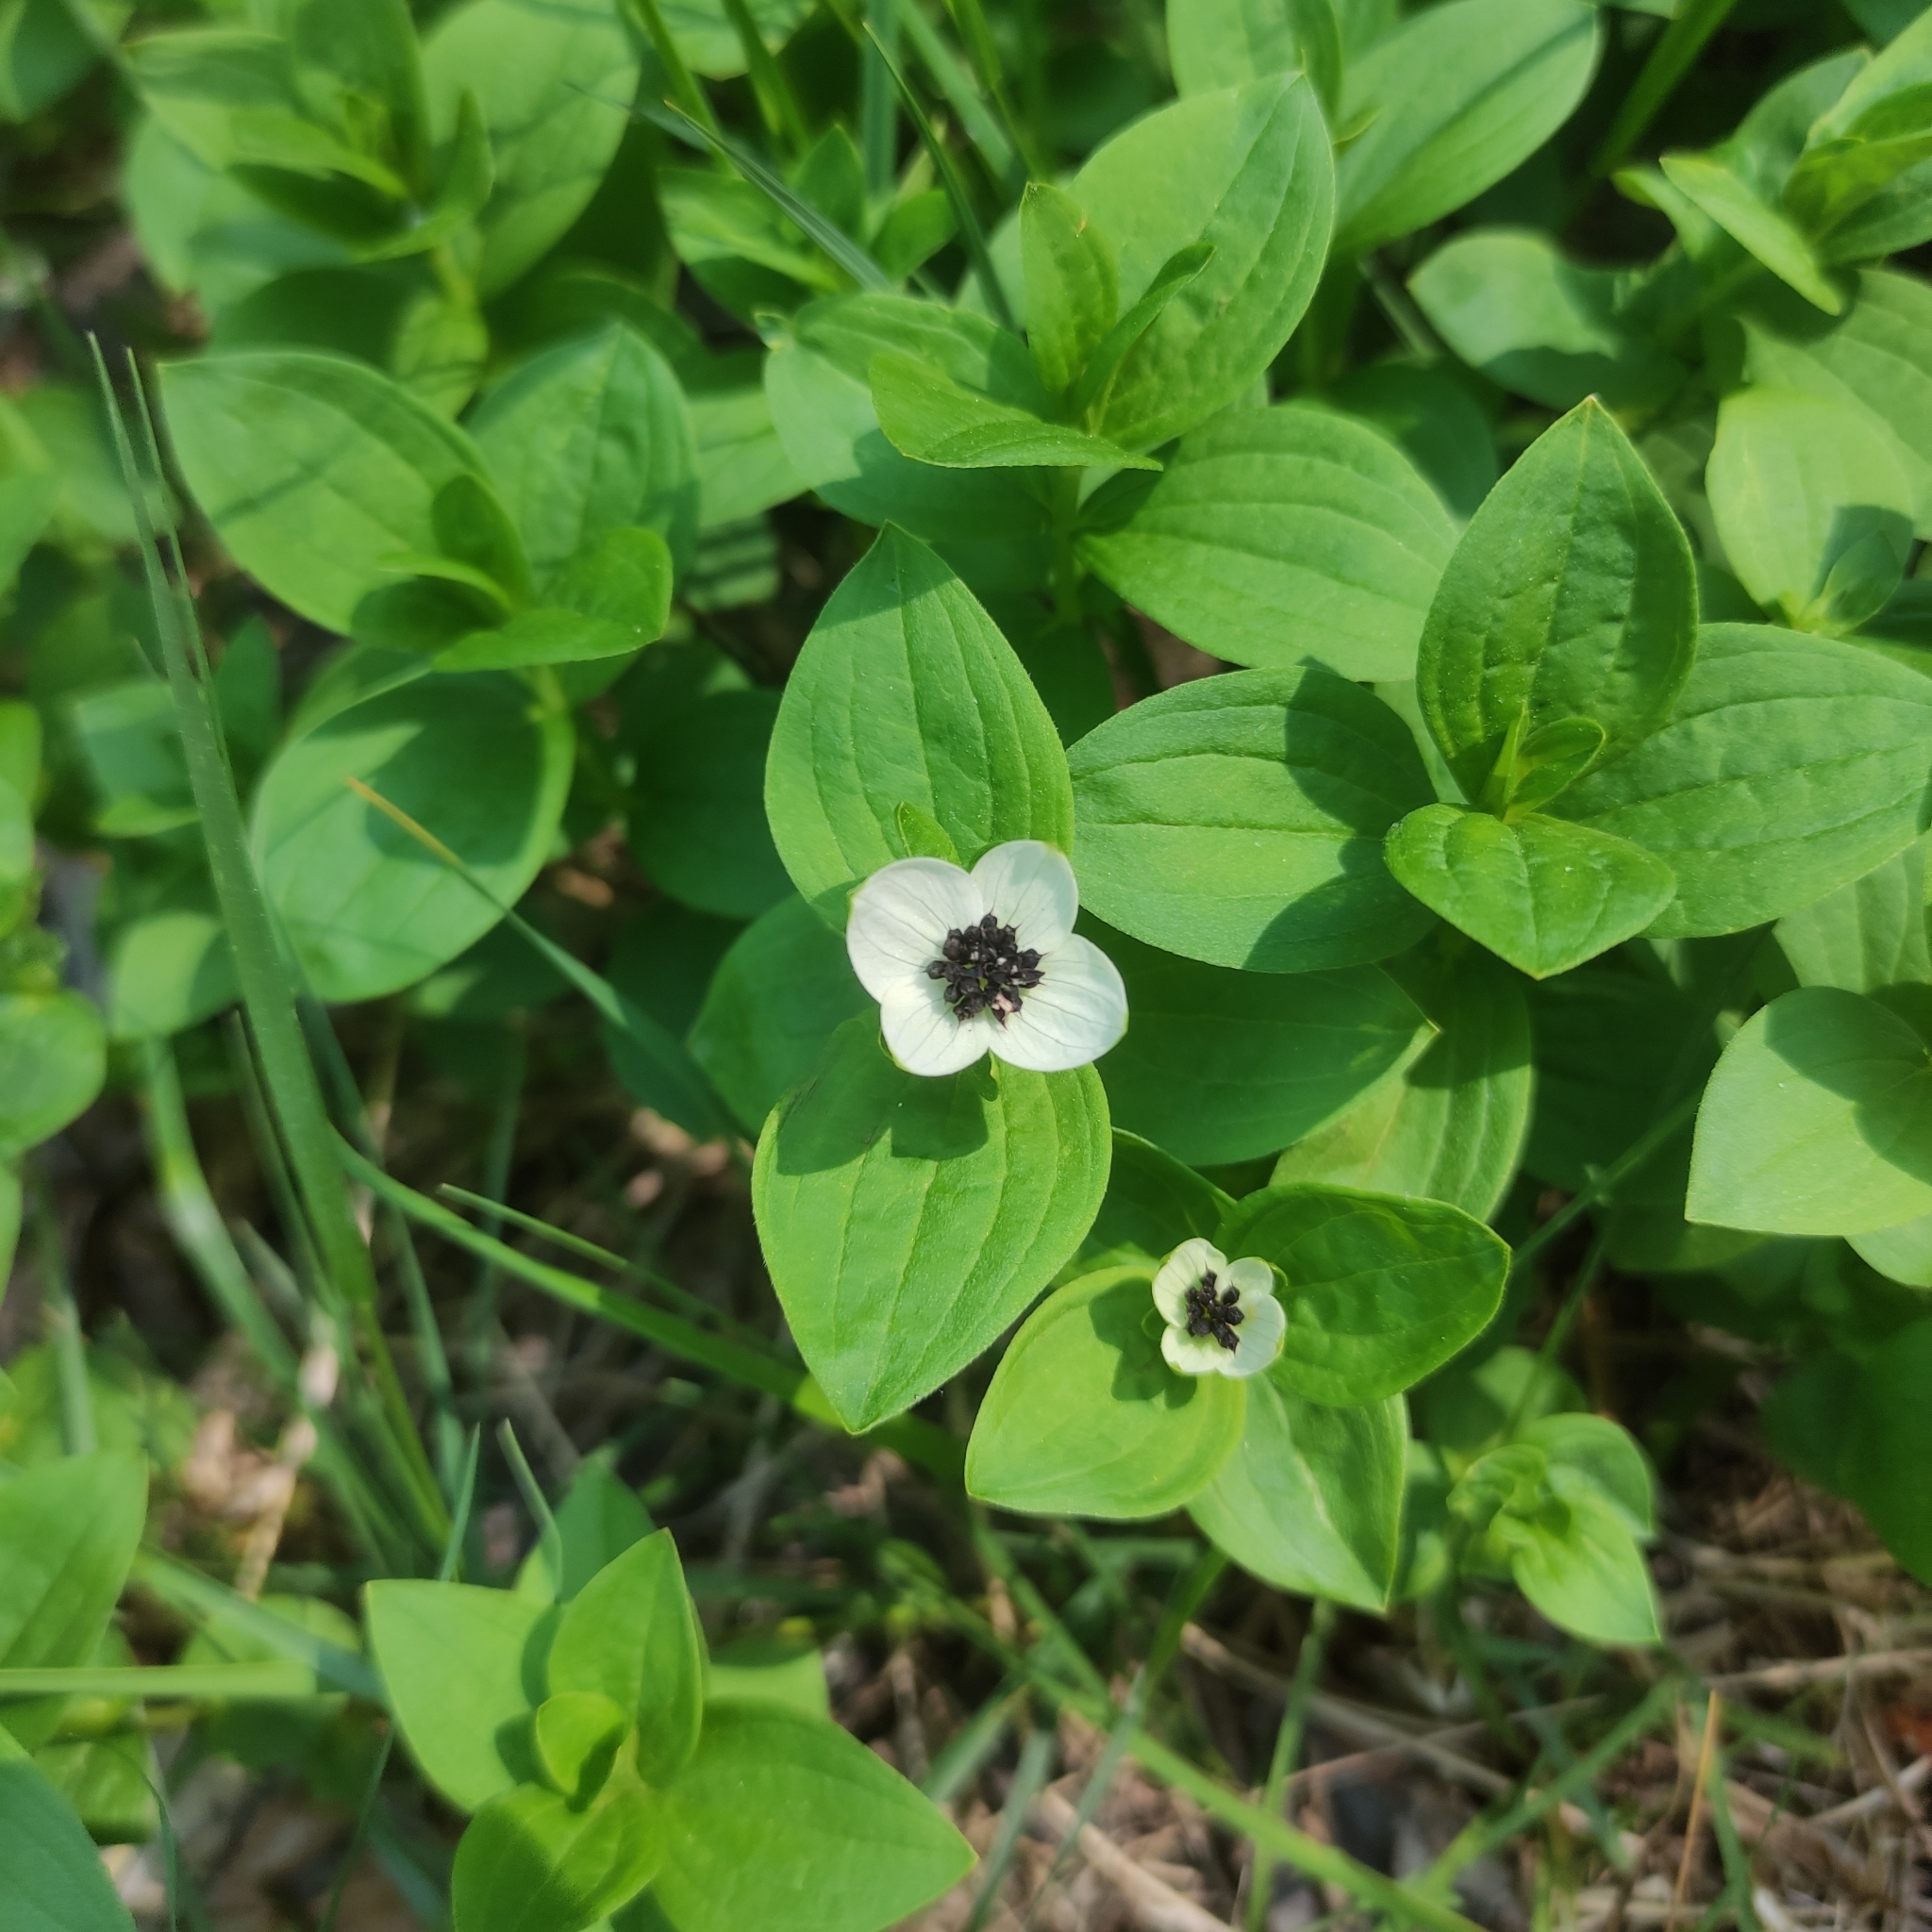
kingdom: Plantae
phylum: Tracheophyta
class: Magnoliopsida
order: Cornales
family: Cornaceae
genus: Cornus
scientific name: Cornus suecica
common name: Dwarf cornel
